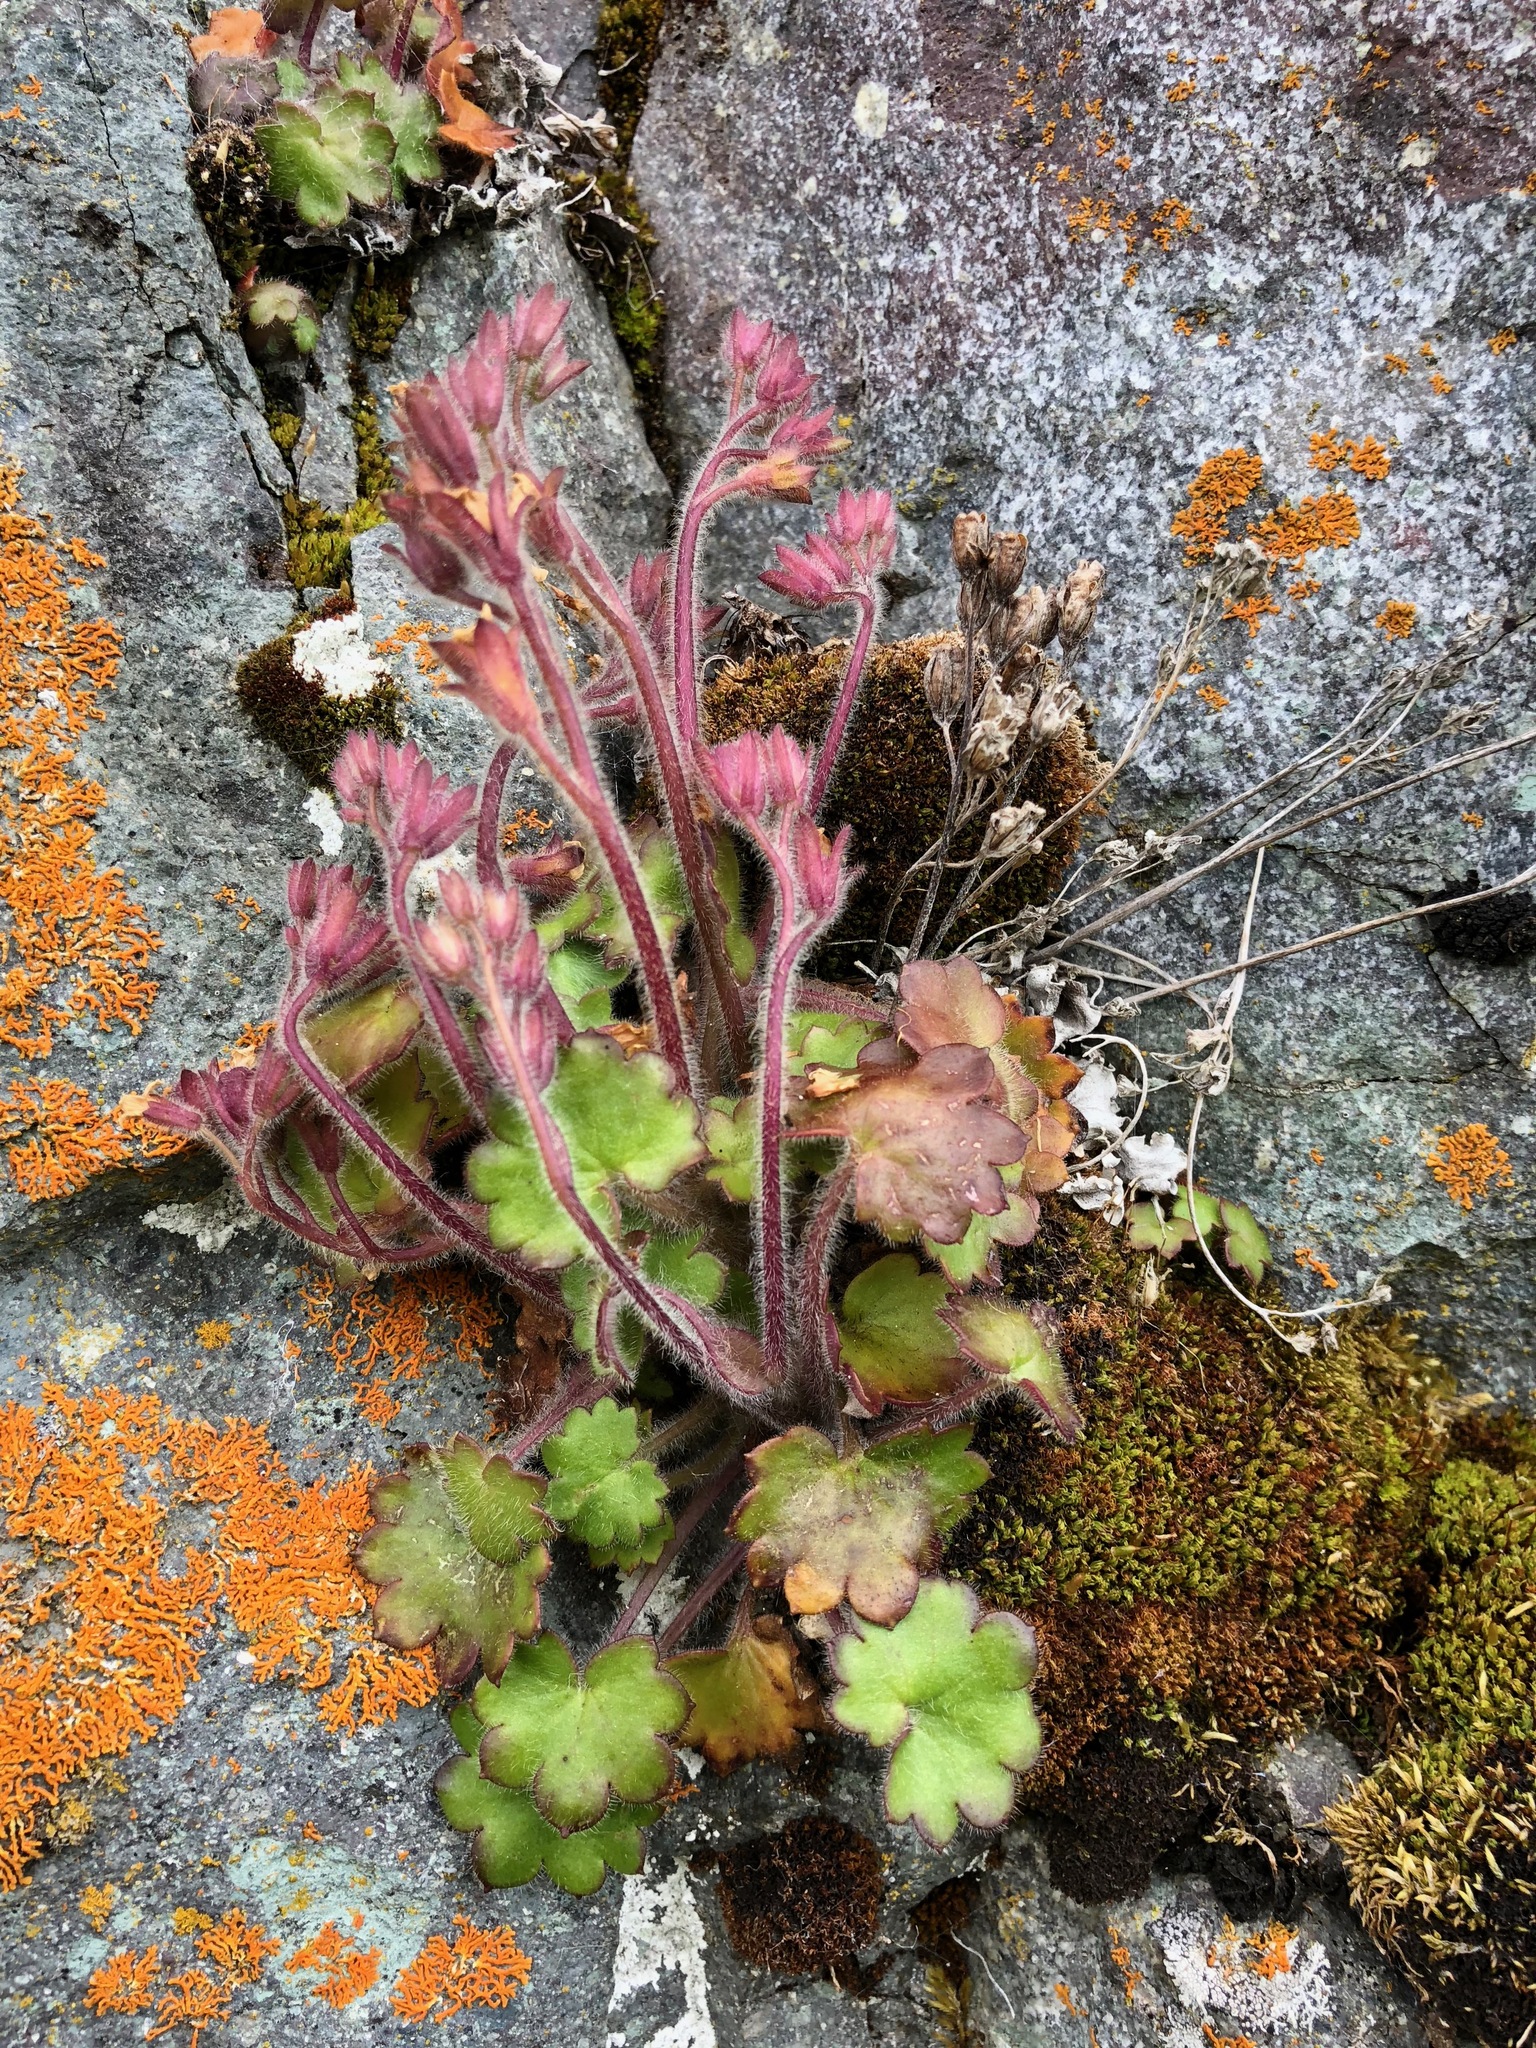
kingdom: Plantae
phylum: Tracheophyta
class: Magnoliopsida
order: Boraginales
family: Hydrophyllaceae
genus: Romanzoffia
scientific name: Romanzoffia unalaschcensis
